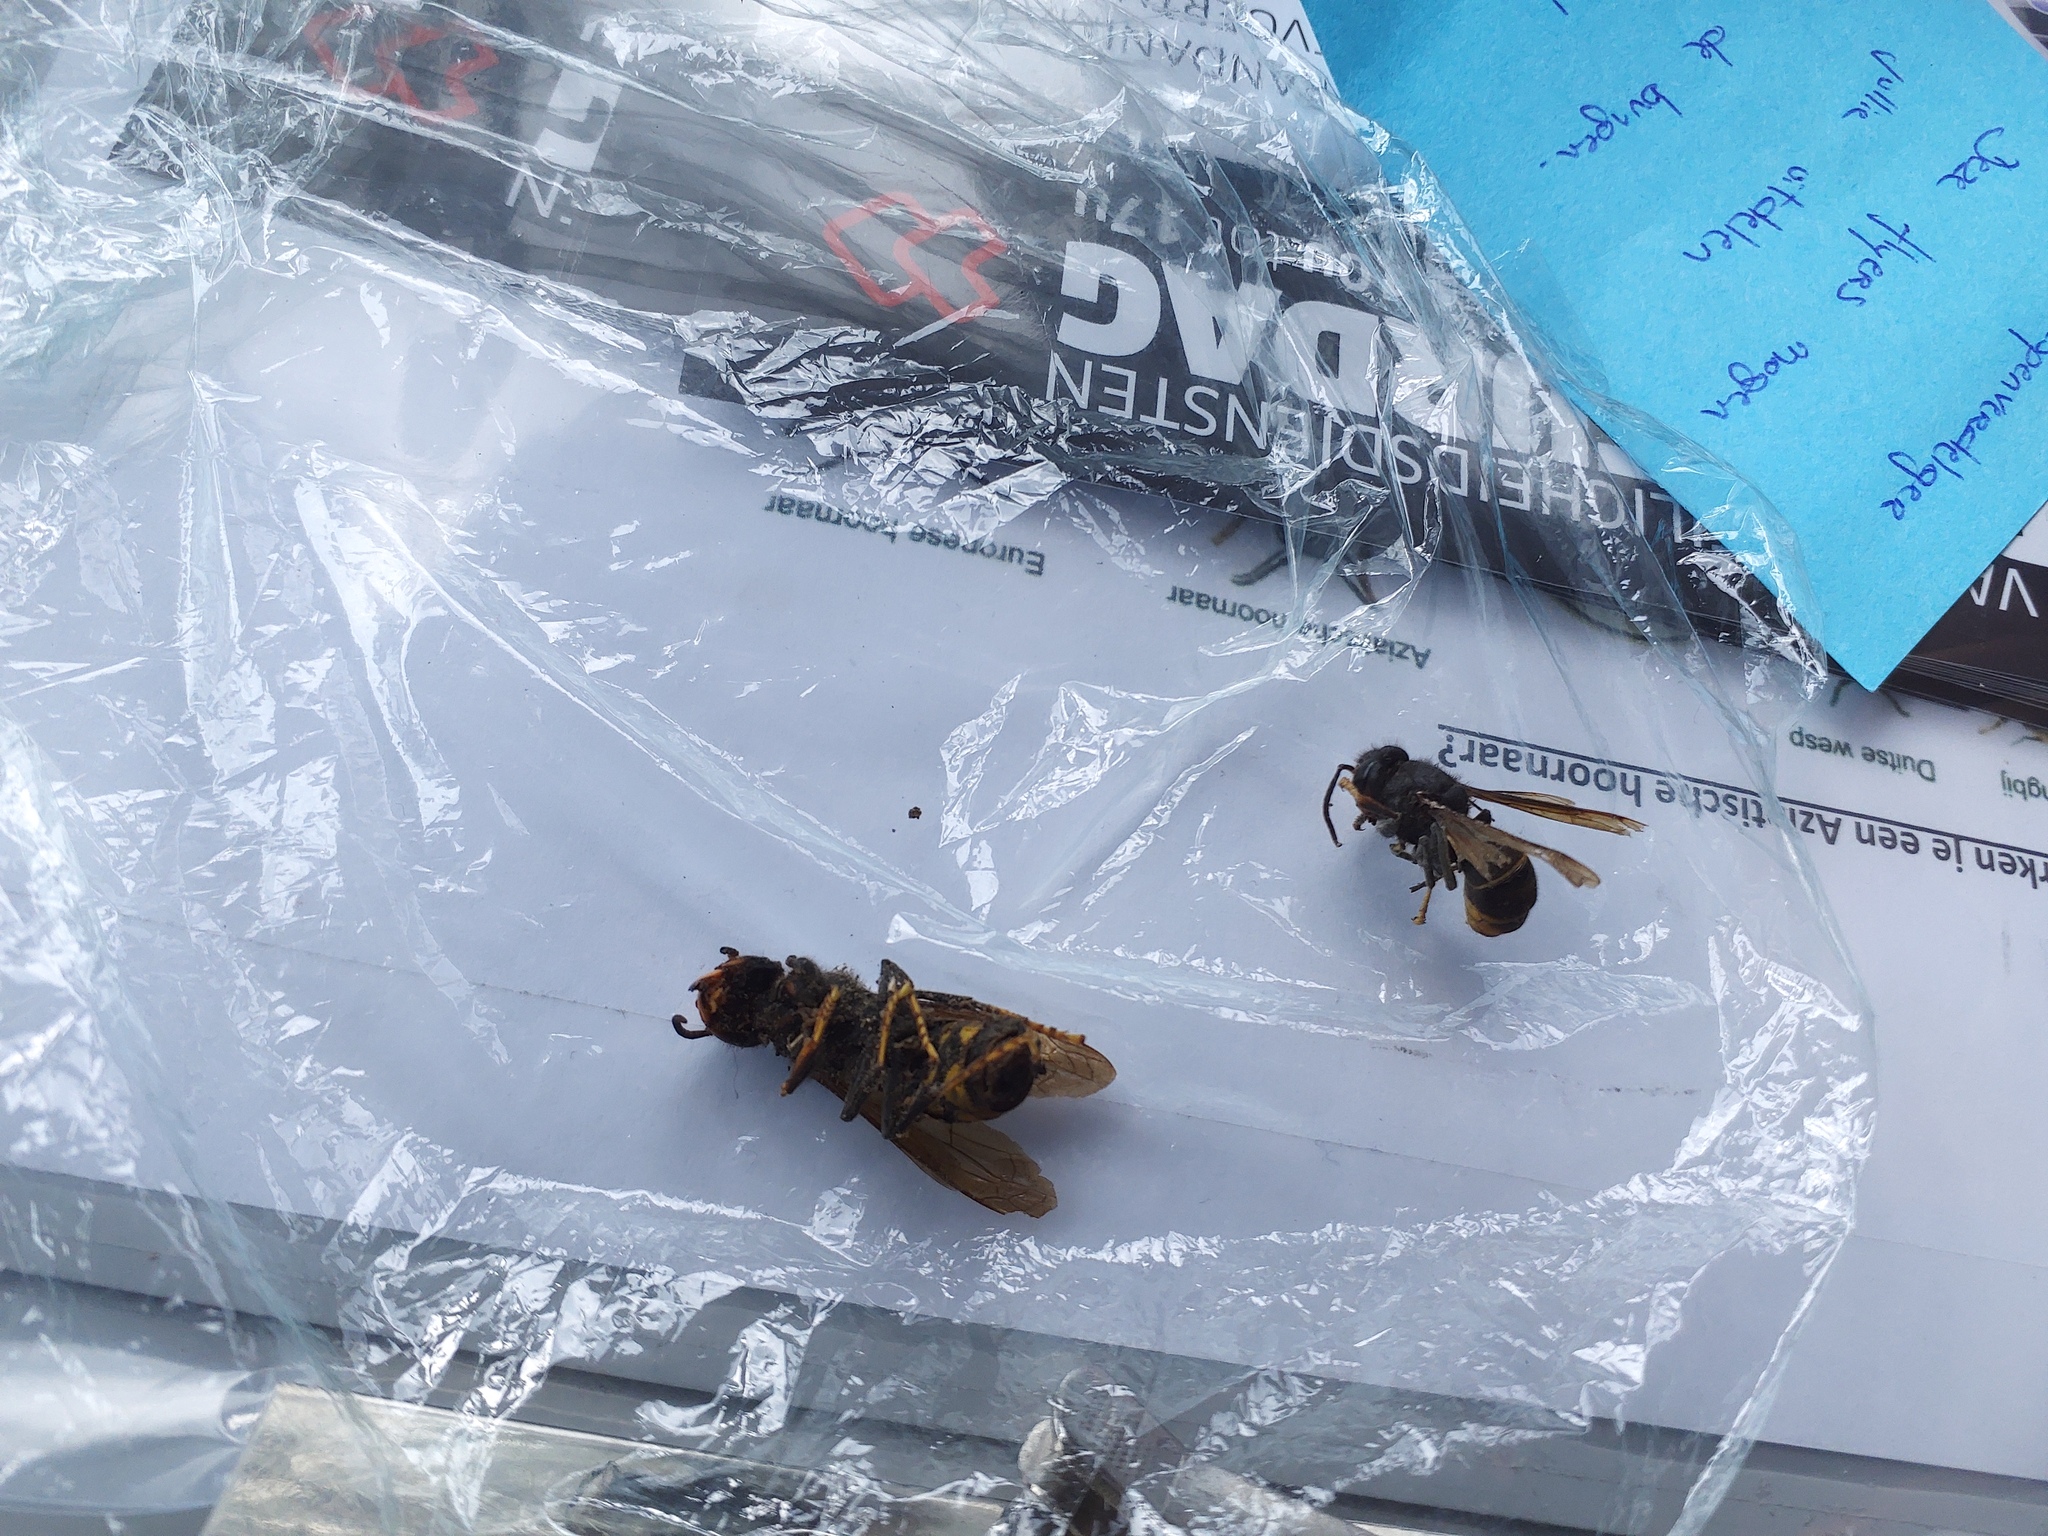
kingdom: Animalia
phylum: Arthropoda
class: Insecta
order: Hymenoptera
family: Vespidae
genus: Vespa
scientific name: Vespa velutina
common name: Asian hornet
